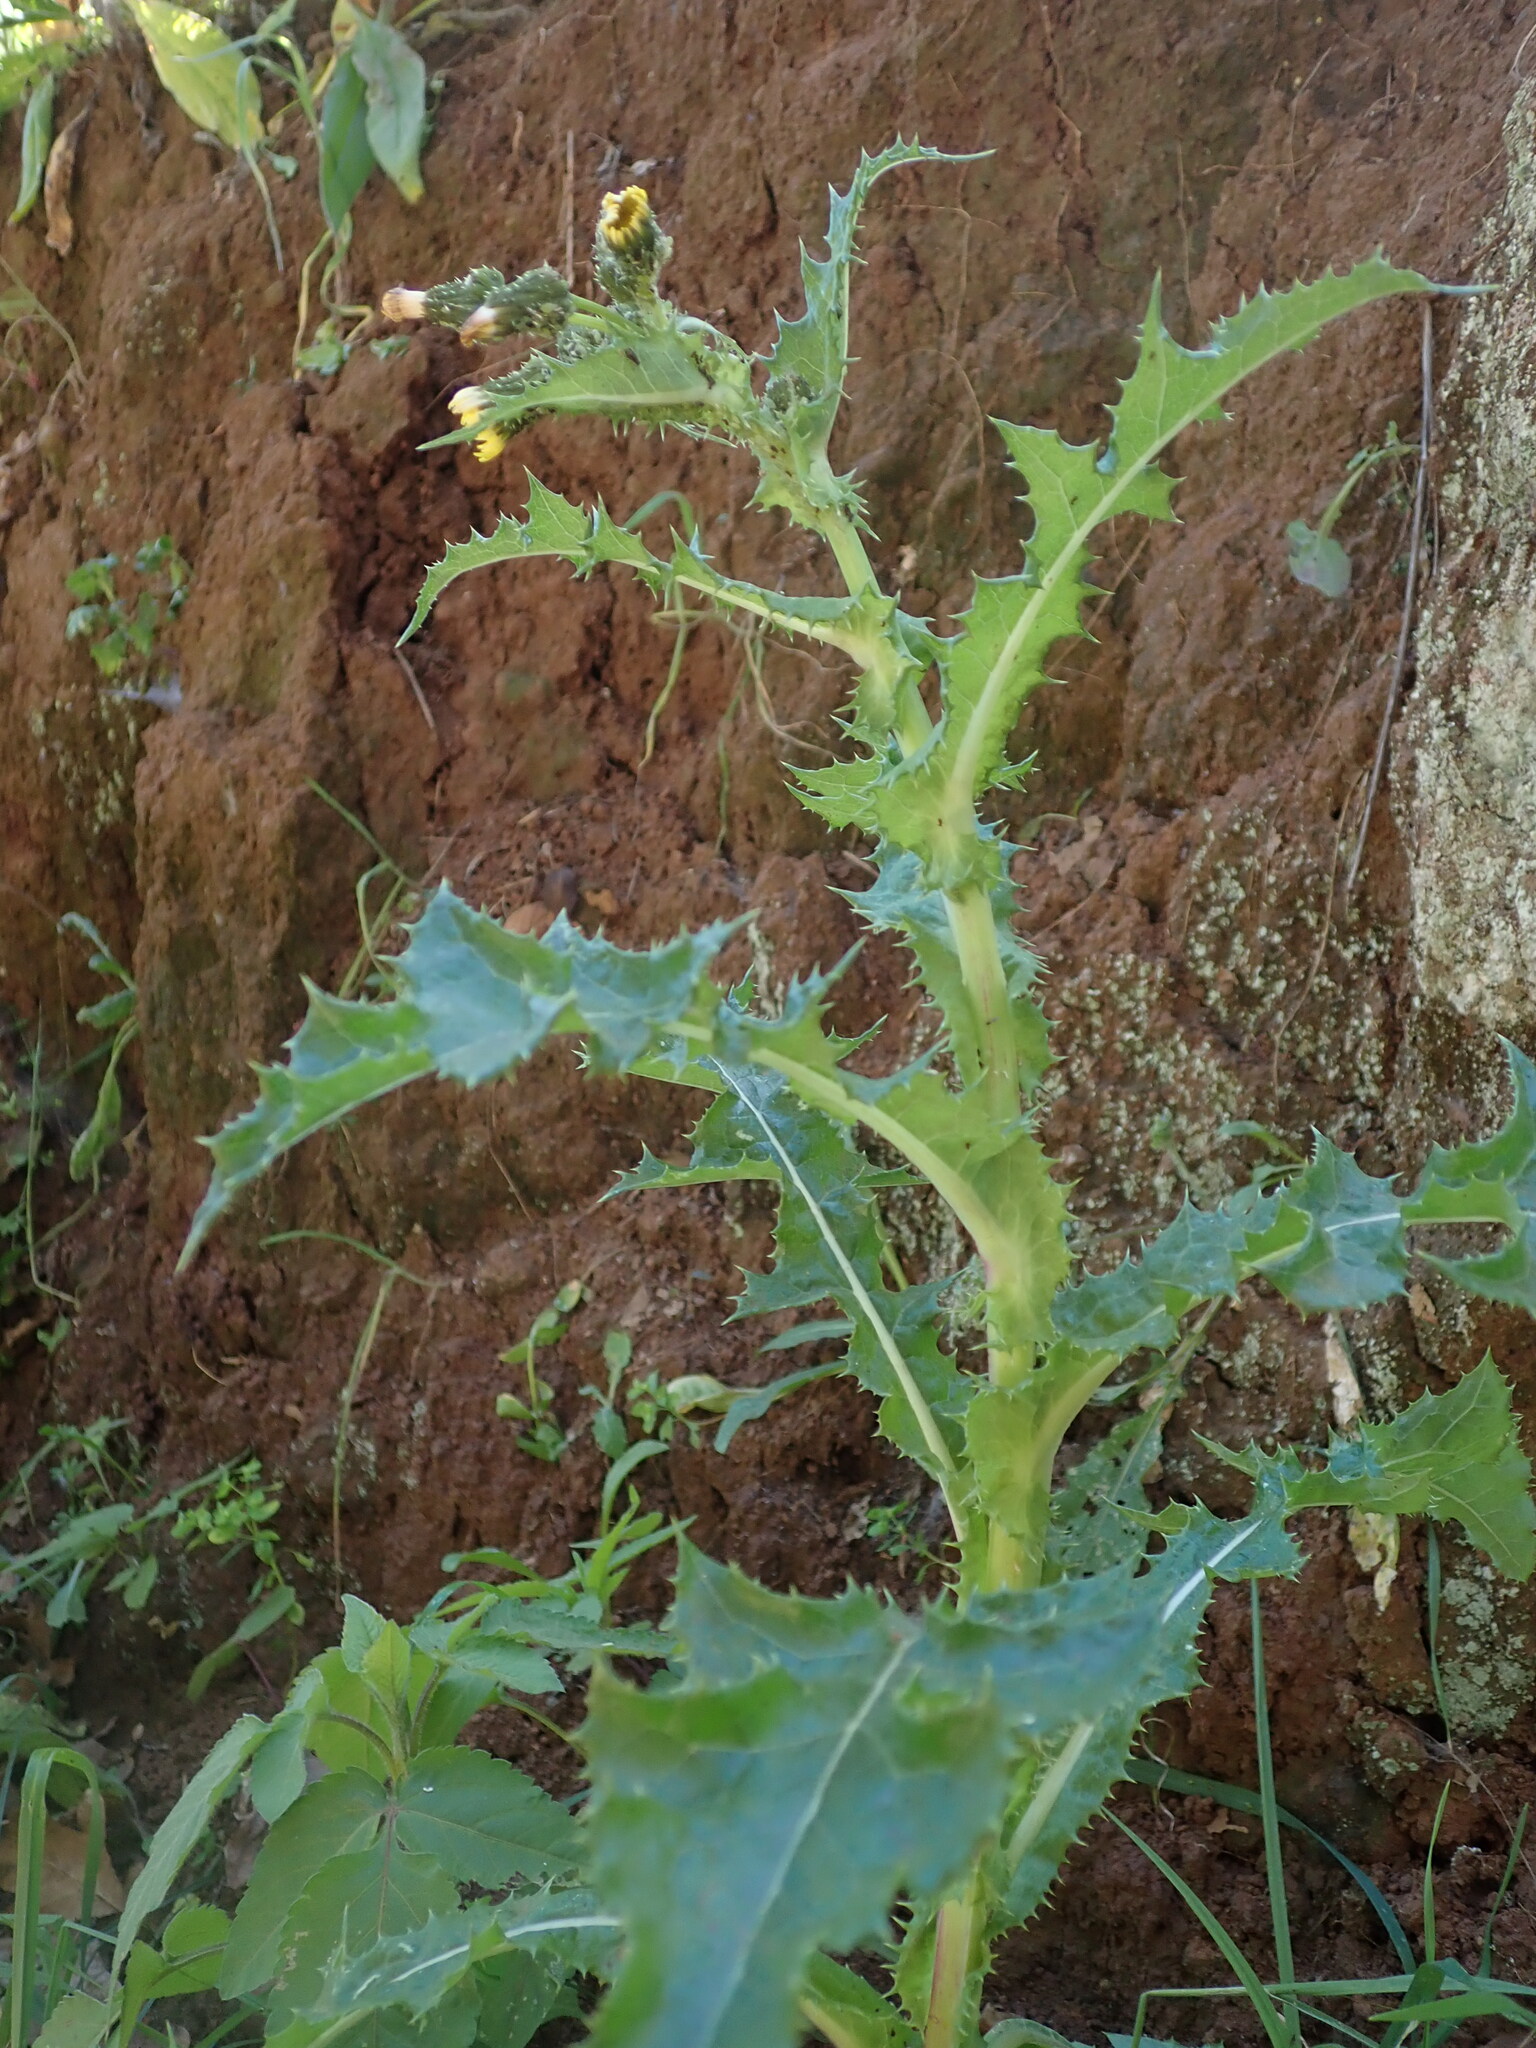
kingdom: Plantae
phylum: Tracheophyta
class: Magnoliopsida
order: Asterales
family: Asteraceae
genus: Sonchus
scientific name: Sonchus asper
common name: Prickly sow-thistle
